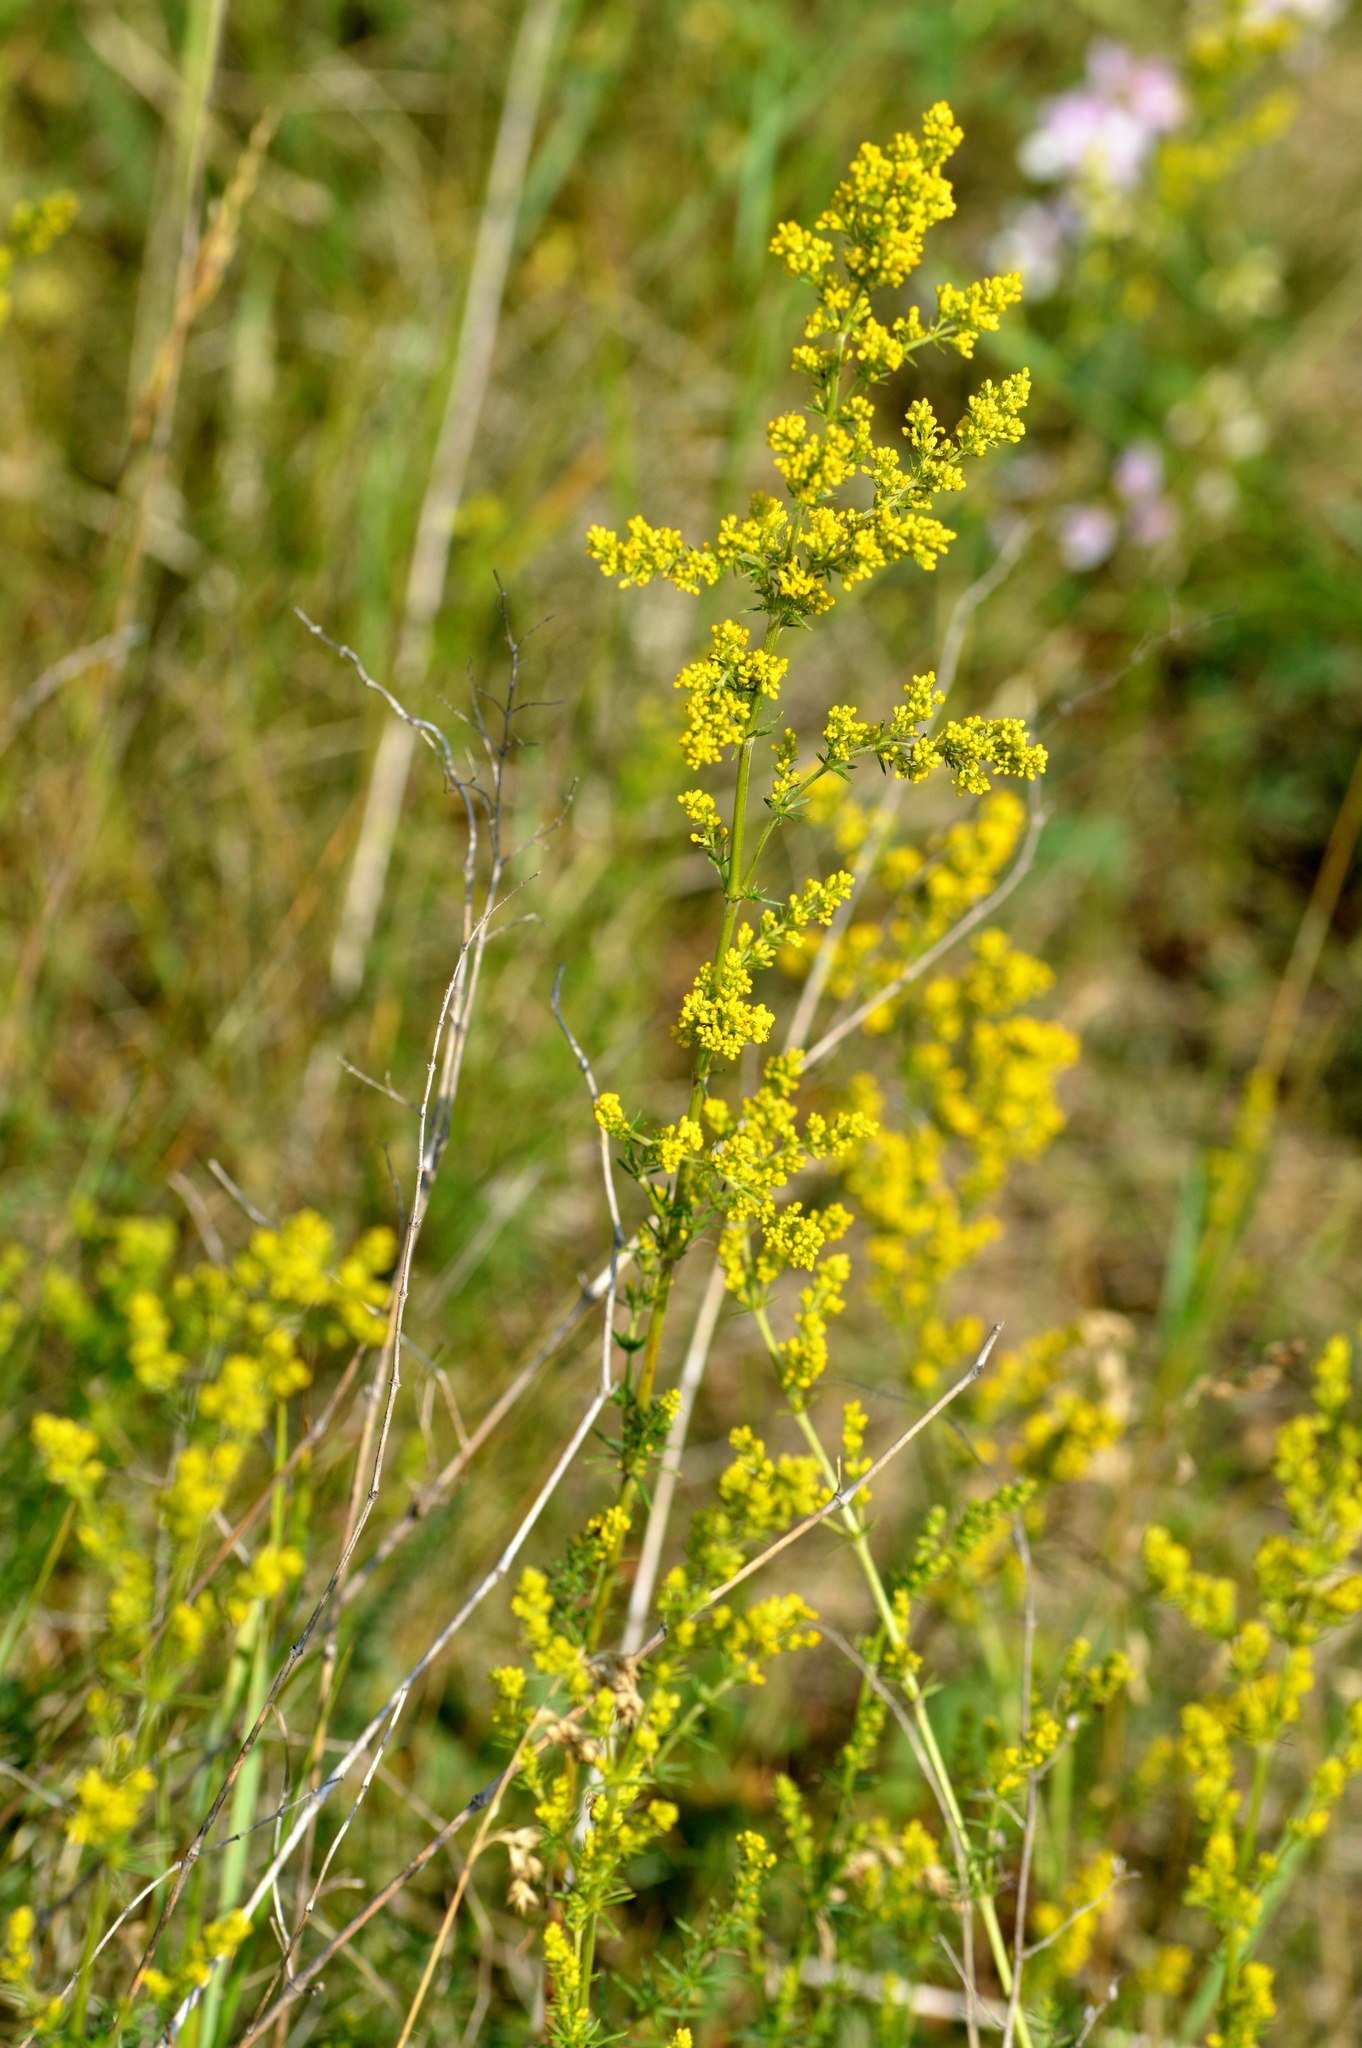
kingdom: Plantae
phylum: Tracheophyta
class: Magnoliopsida
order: Gentianales
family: Rubiaceae
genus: Galium
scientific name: Galium verum
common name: Lady's bedstraw
